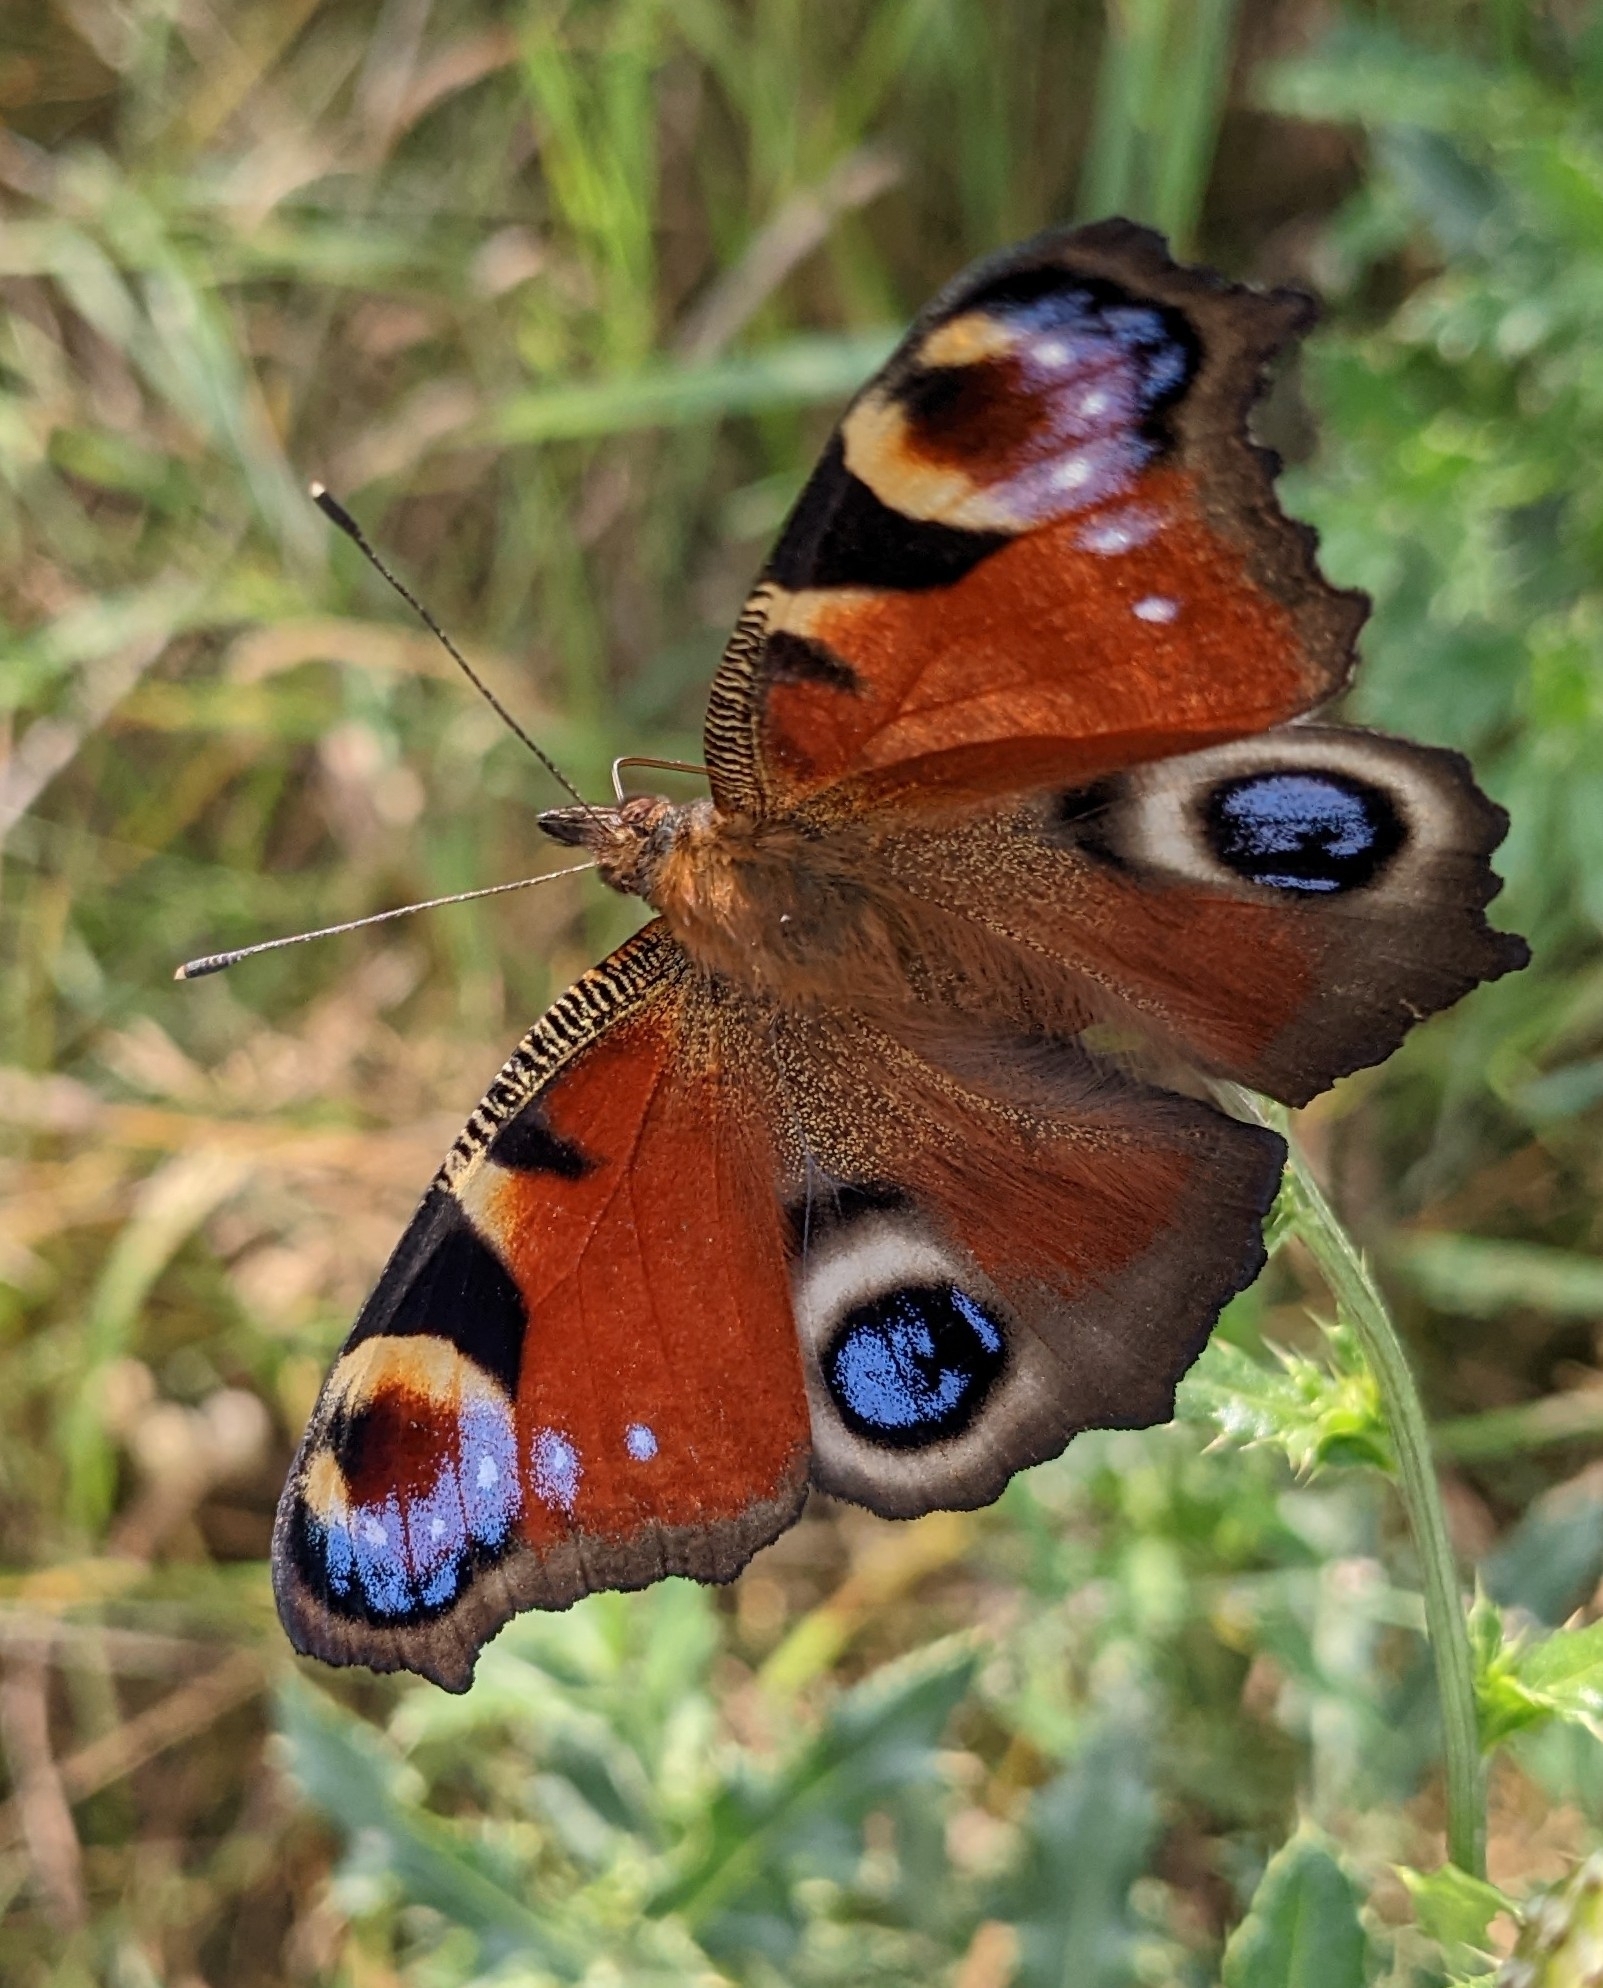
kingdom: Animalia
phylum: Arthropoda
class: Insecta
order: Lepidoptera
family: Nymphalidae
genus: Aglais
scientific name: Aglais io
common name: Peacock
